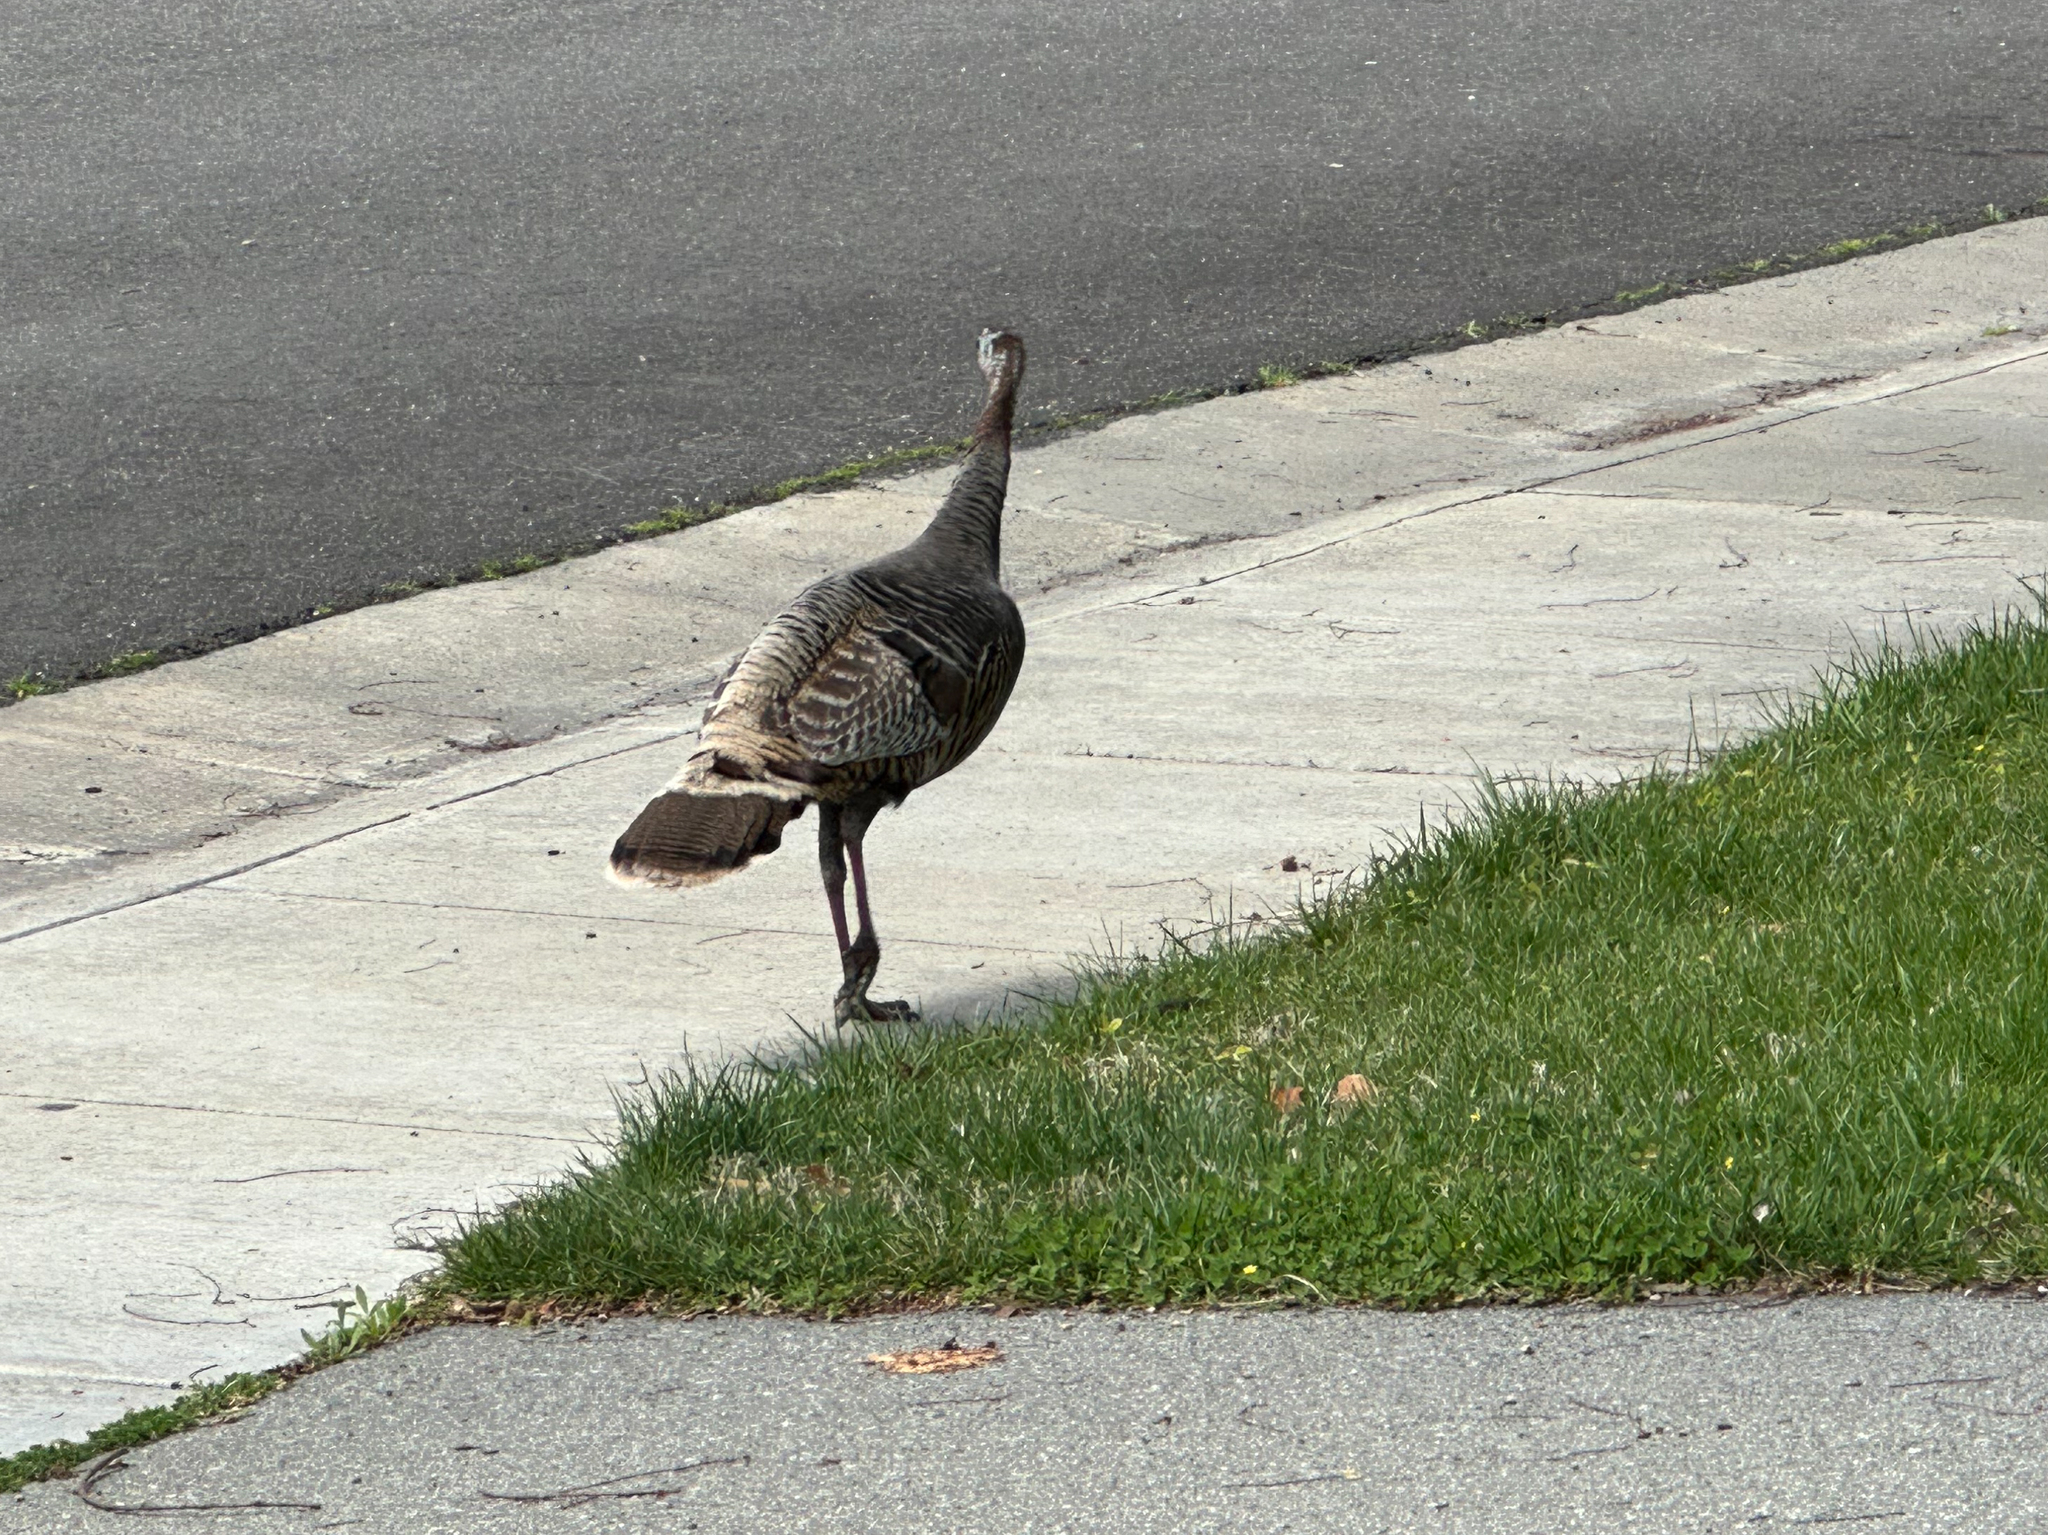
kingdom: Animalia
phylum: Chordata
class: Aves
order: Galliformes
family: Phasianidae
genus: Meleagris
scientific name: Meleagris gallopavo
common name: Wild turkey
